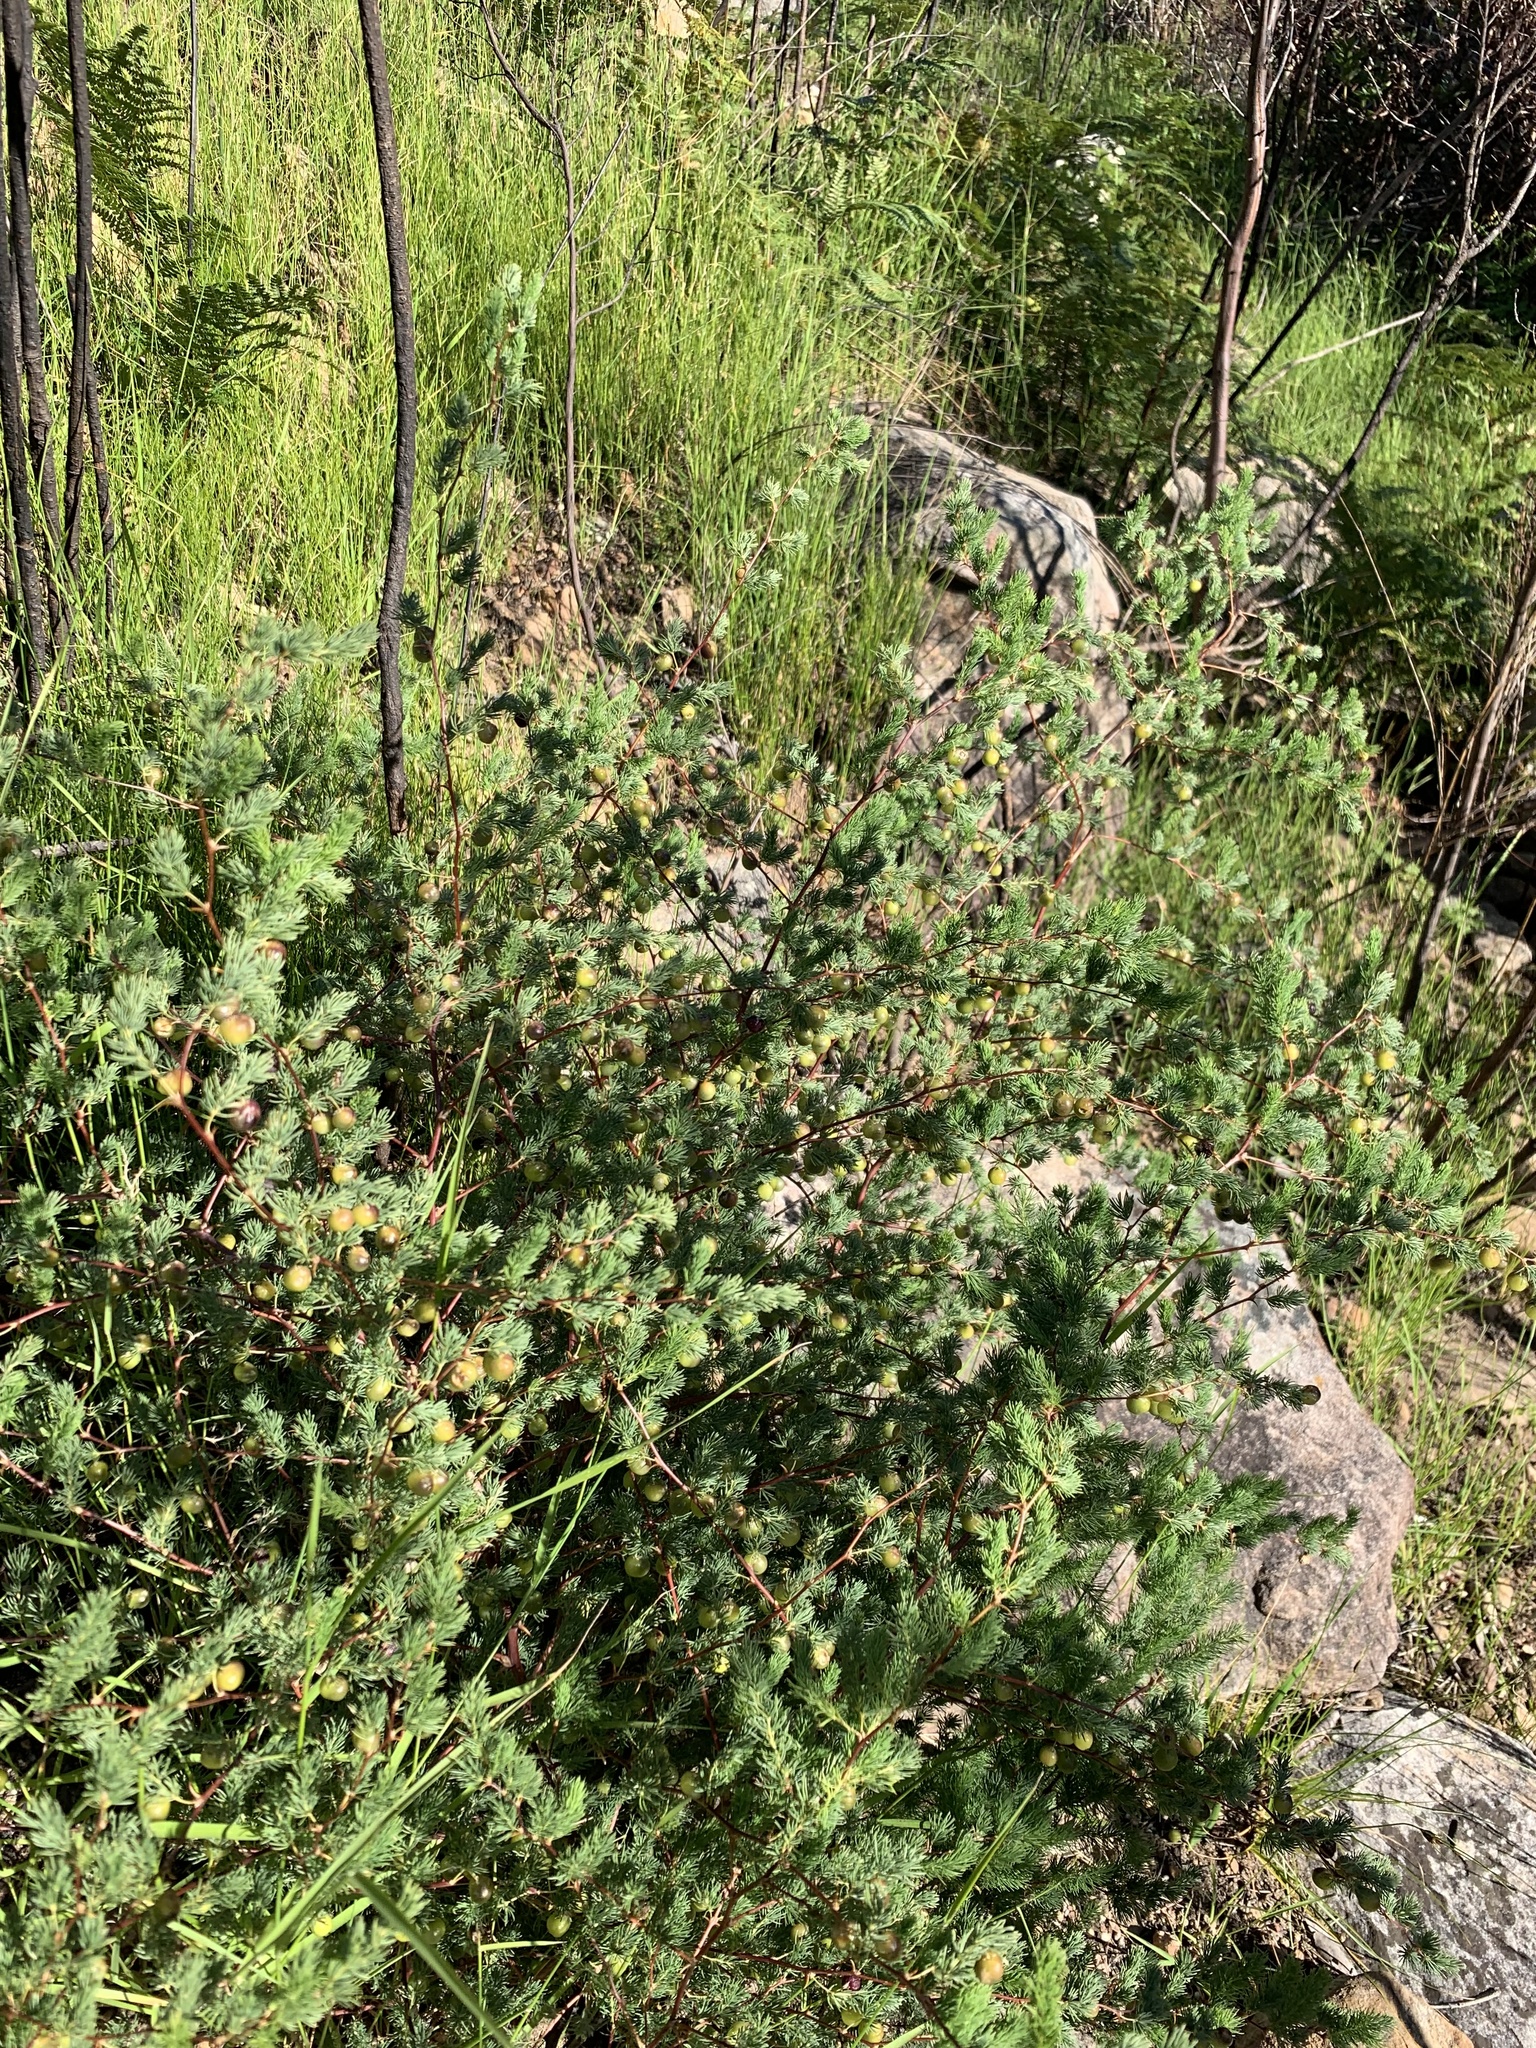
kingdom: Plantae
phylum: Tracheophyta
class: Liliopsida
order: Asparagales
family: Asparagaceae
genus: Asparagus
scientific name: Asparagus rubicundus
